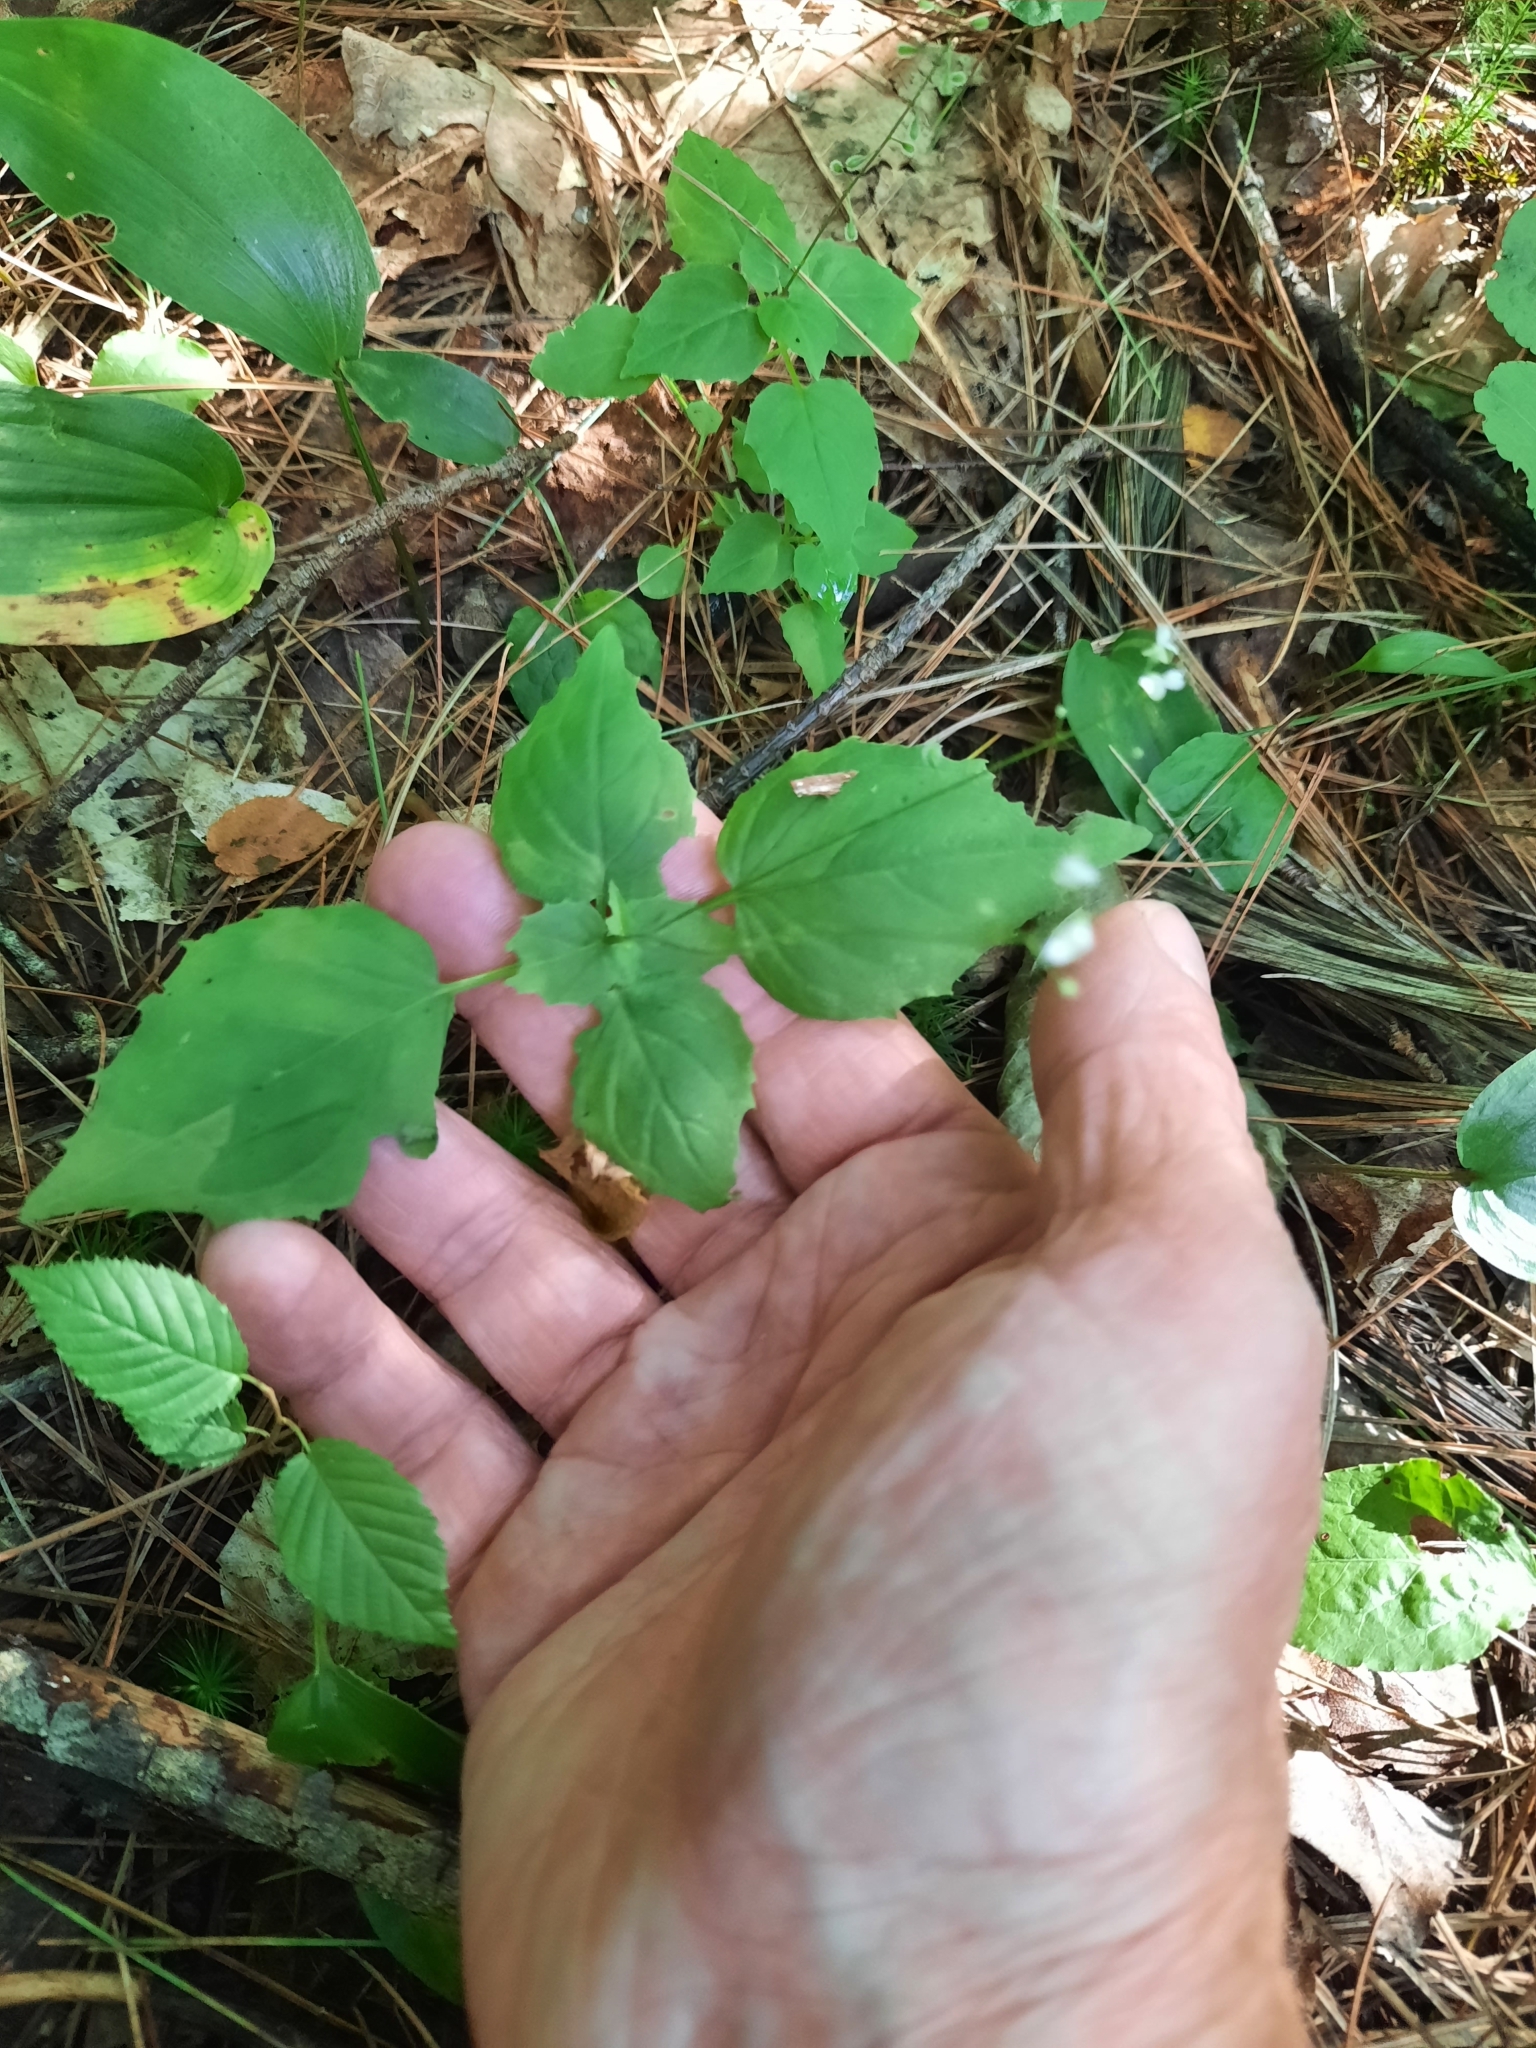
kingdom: Plantae
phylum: Tracheophyta
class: Magnoliopsida
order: Myrtales
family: Onagraceae
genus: Circaea
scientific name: Circaea alpina
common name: Alpine enchanter's-nightshade
